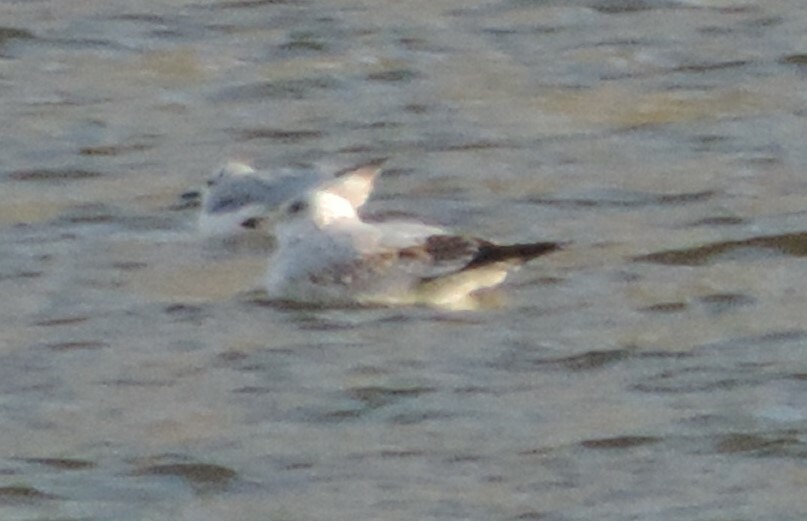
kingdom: Animalia
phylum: Chordata
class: Aves
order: Charadriiformes
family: Laridae
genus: Larus
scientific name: Larus delawarensis
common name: Ring-billed gull
